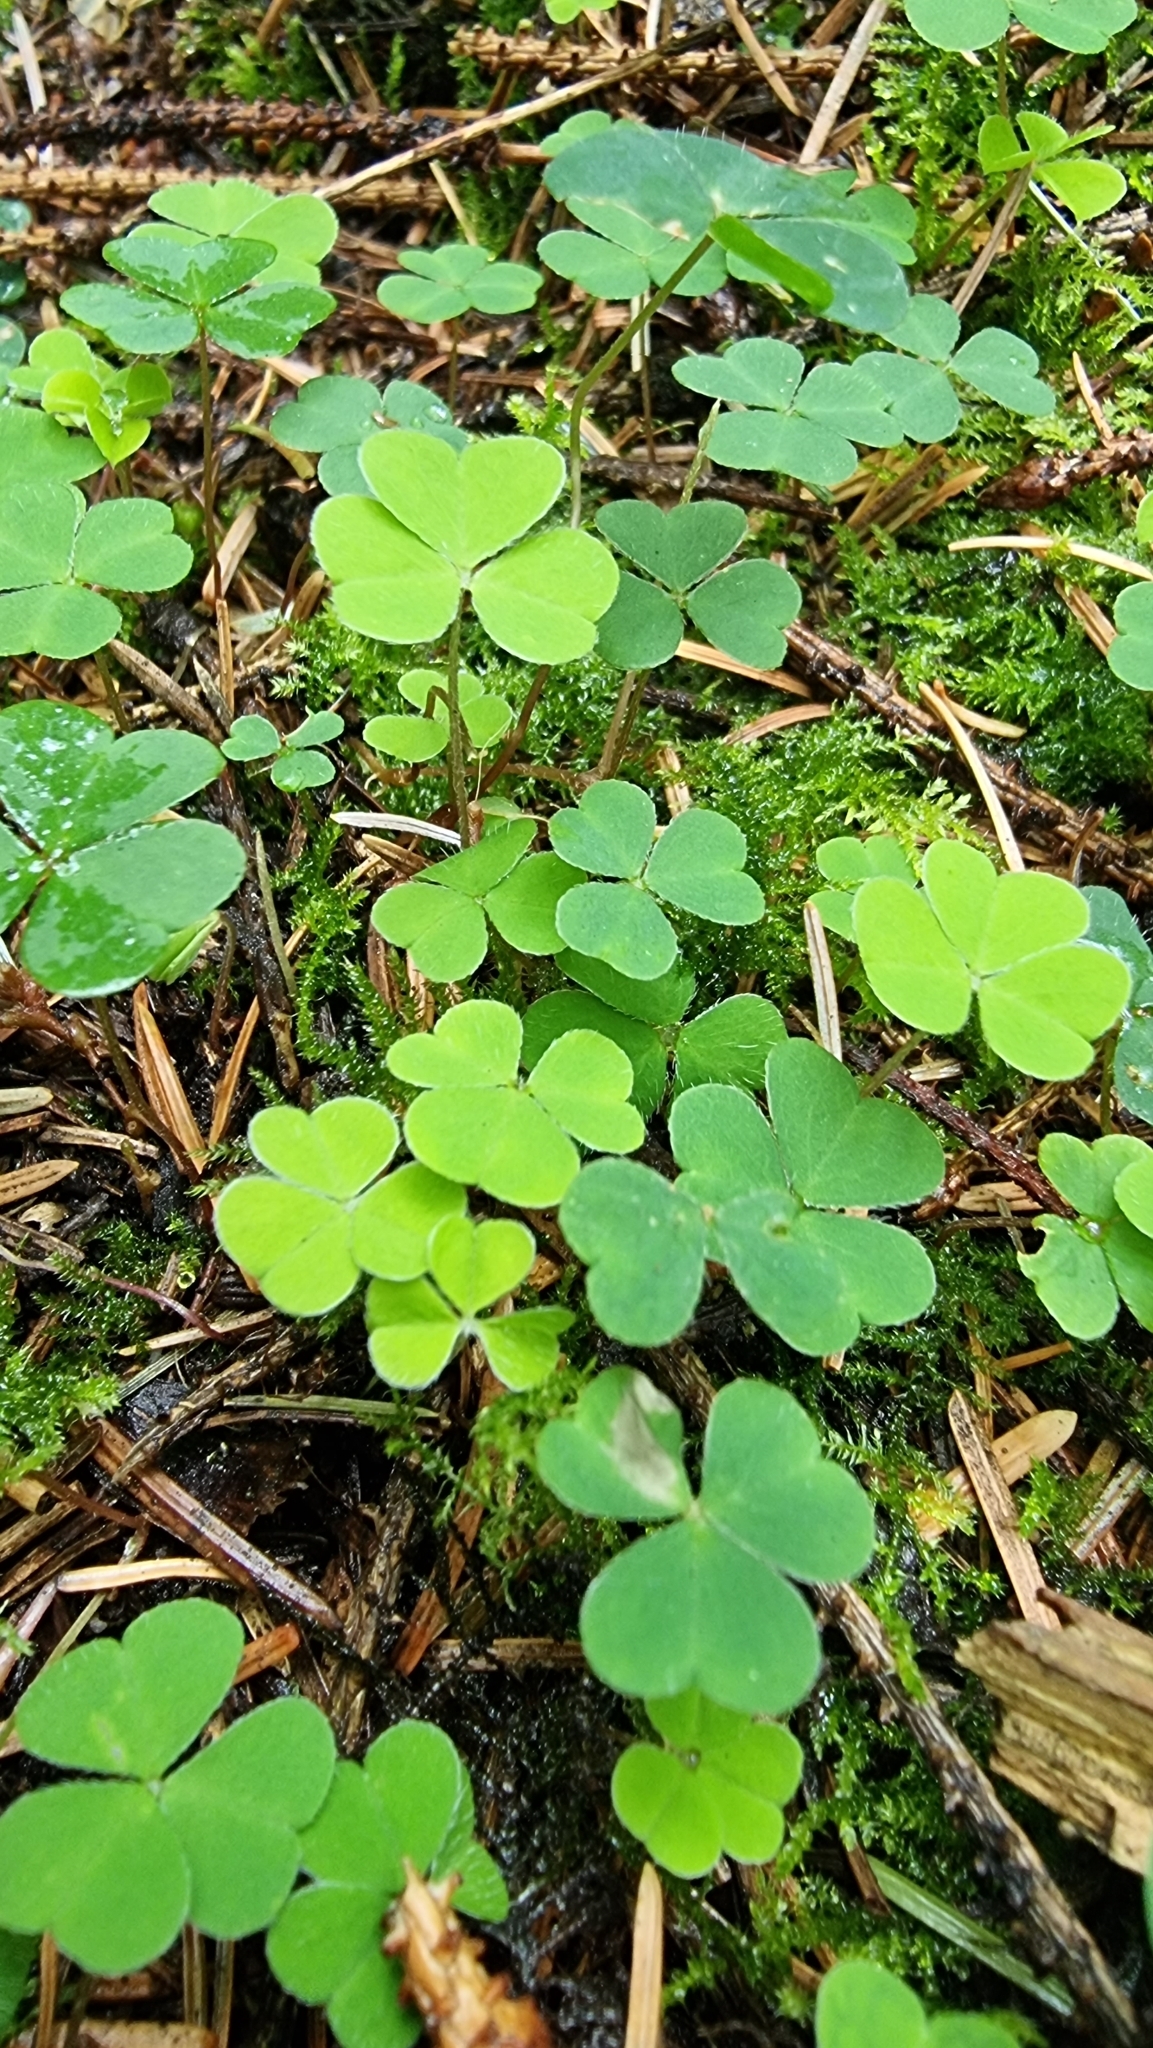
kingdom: Plantae
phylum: Tracheophyta
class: Magnoliopsida
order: Oxalidales
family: Oxalidaceae
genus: Oxalis
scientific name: Oxalis acetosella
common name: Wood-sorrel
